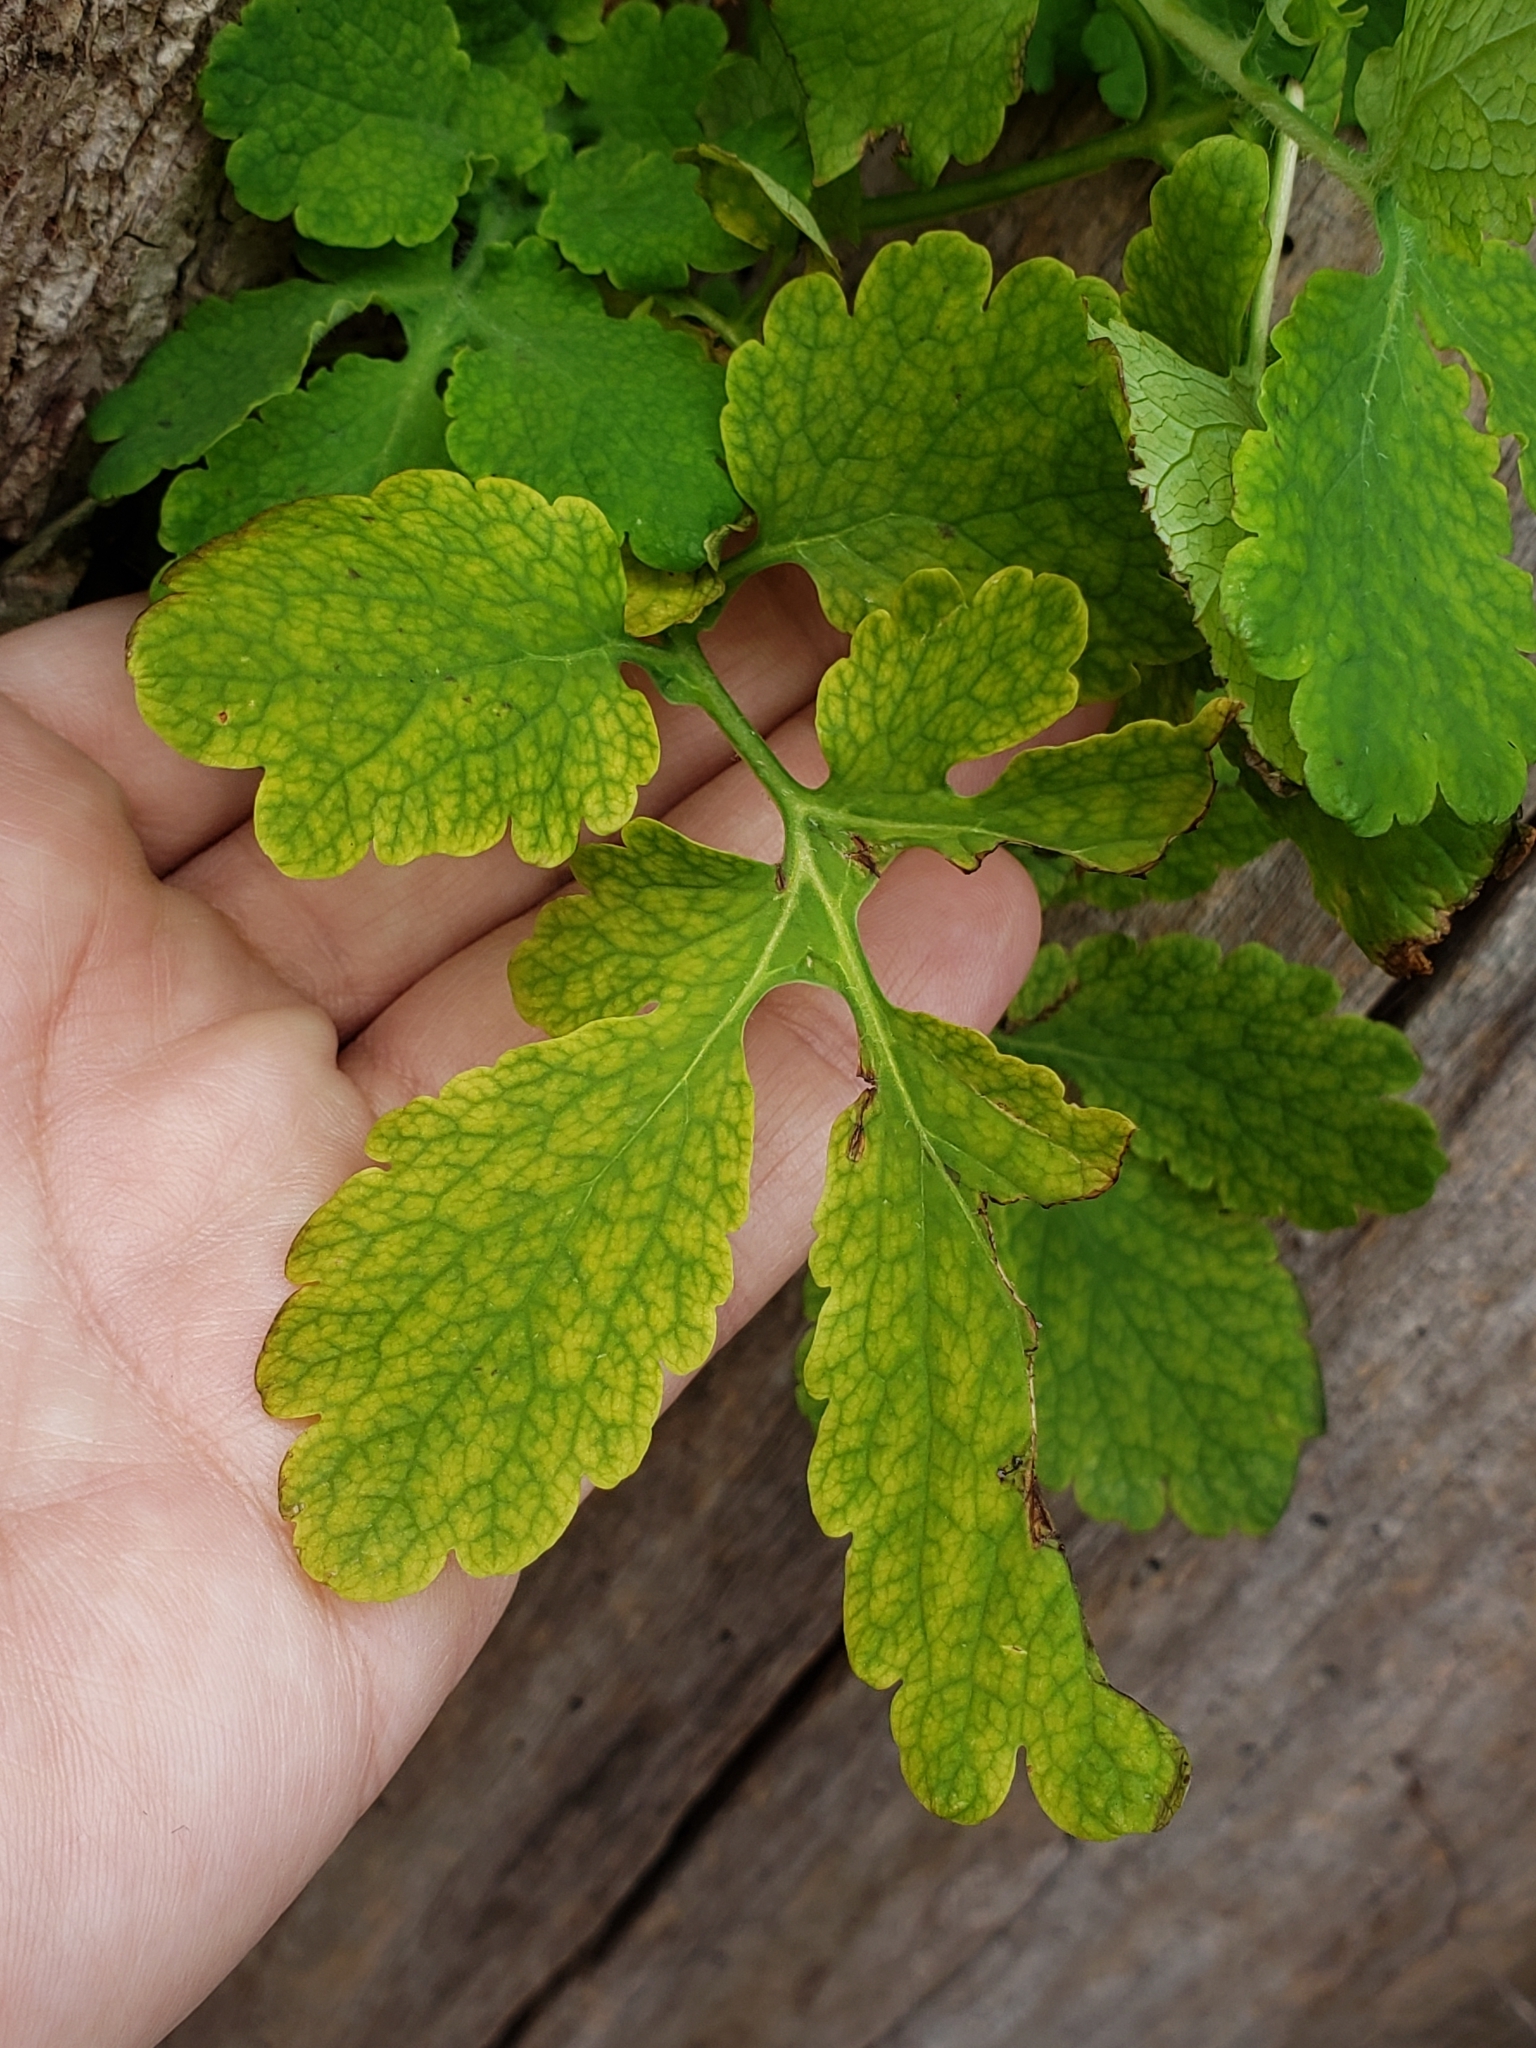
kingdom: Plantae
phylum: Tracheophyta
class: Magnoliopsida
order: Ranunculales
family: Papaveraceae
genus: Chelidonium
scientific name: Chelidonium majus
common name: Greater celandine
